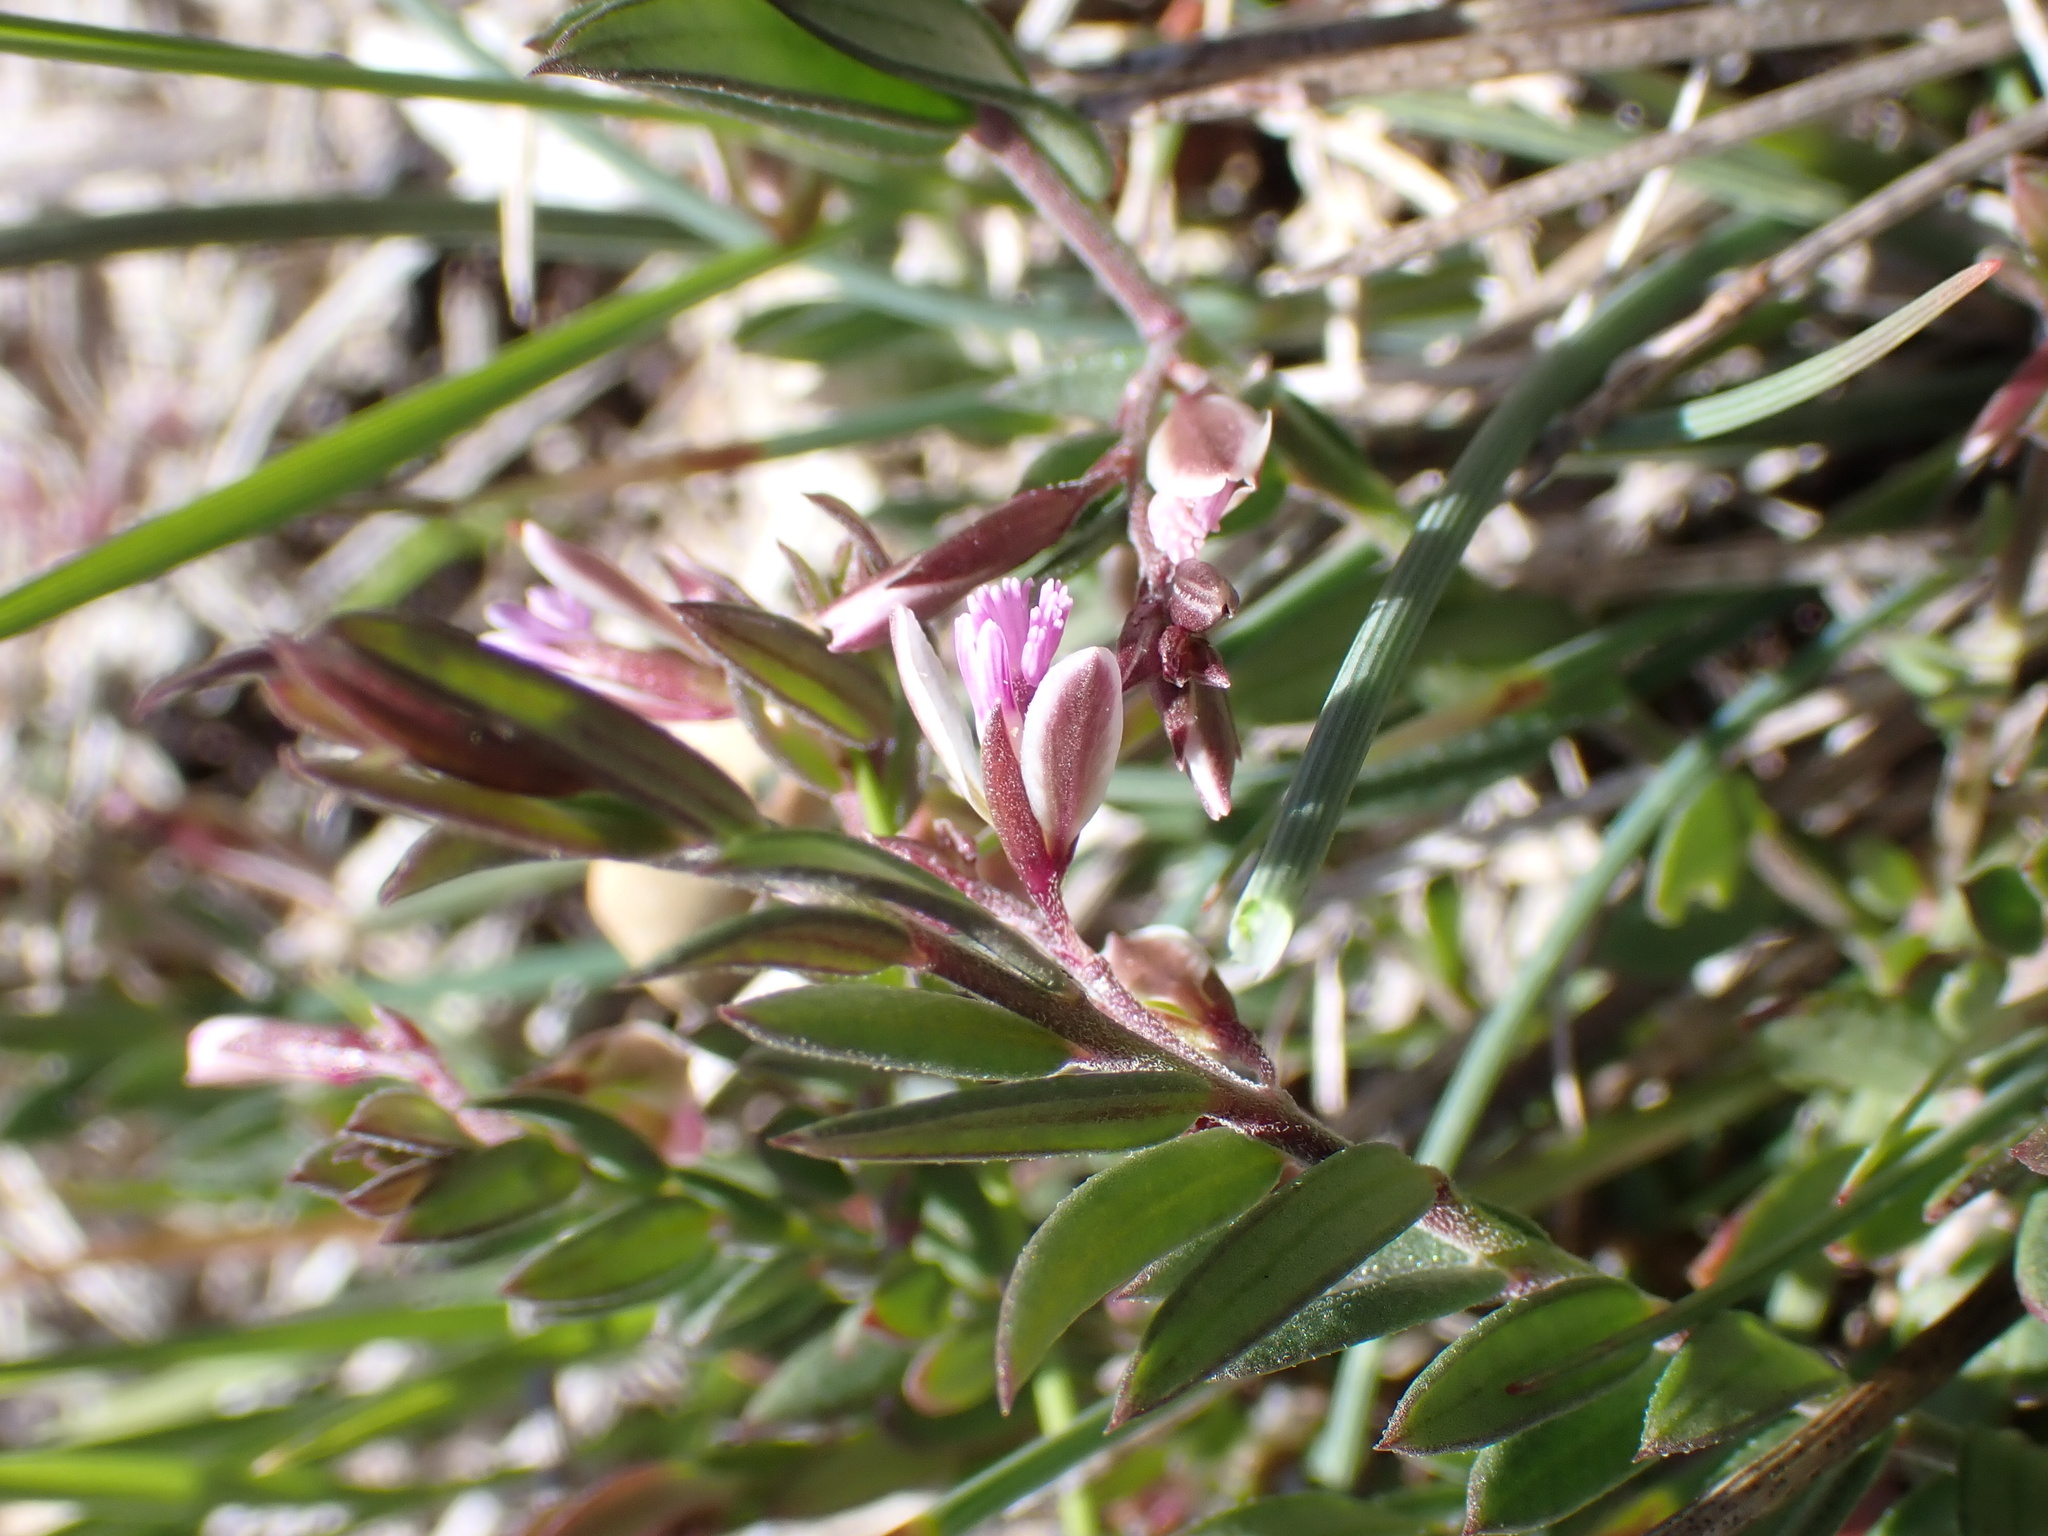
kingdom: Plantae
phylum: Tracheophyta
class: Magnoliopsida
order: Fabales
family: Polygalaceae
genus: Polygala
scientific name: Polygala rupestris
